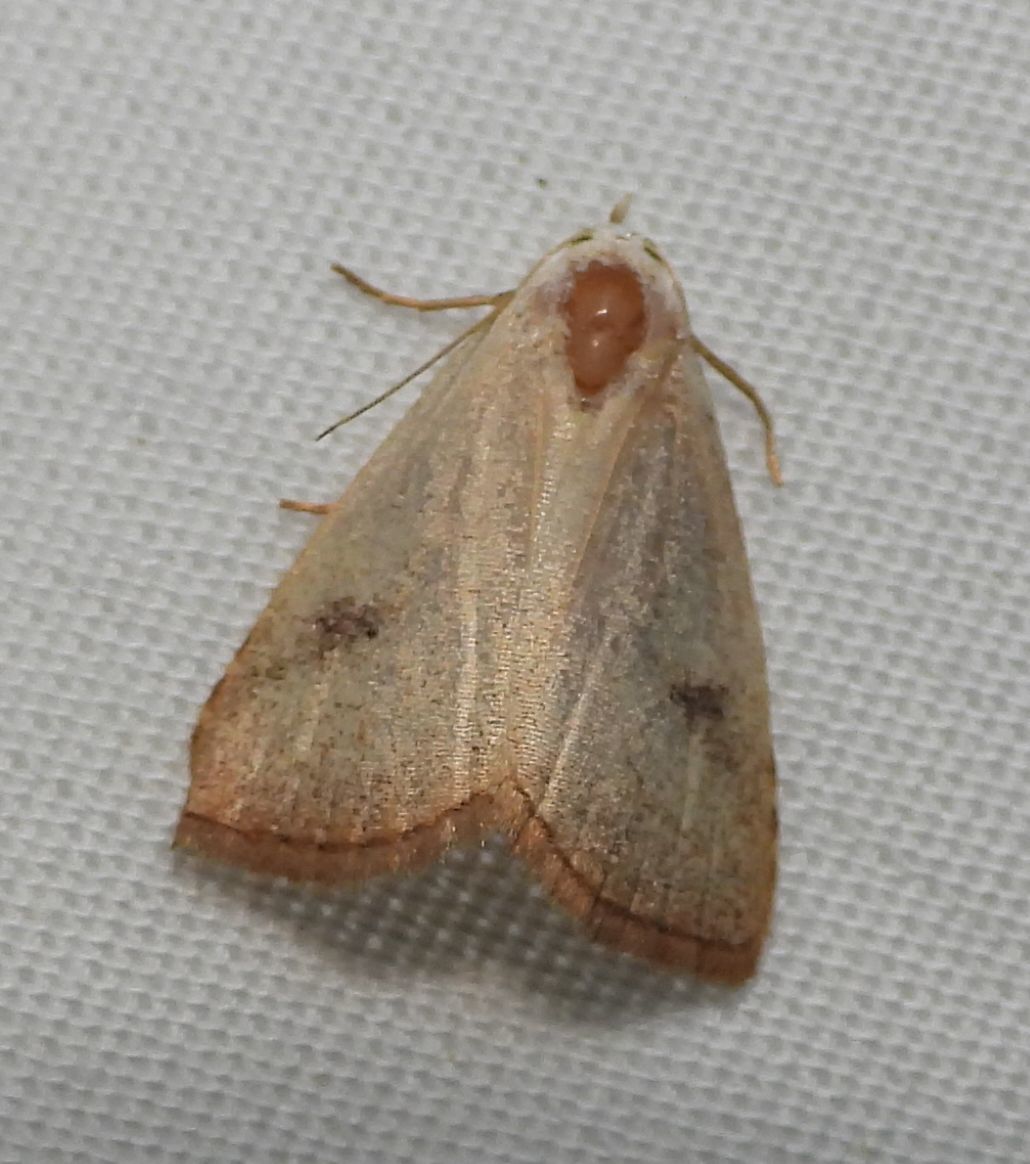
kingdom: Animalia
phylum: Arthropoda
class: Insecta
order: Lepidoptera
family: Erebidae
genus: Rivula
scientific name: Rivula propinqualis
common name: Spotted grass moth
